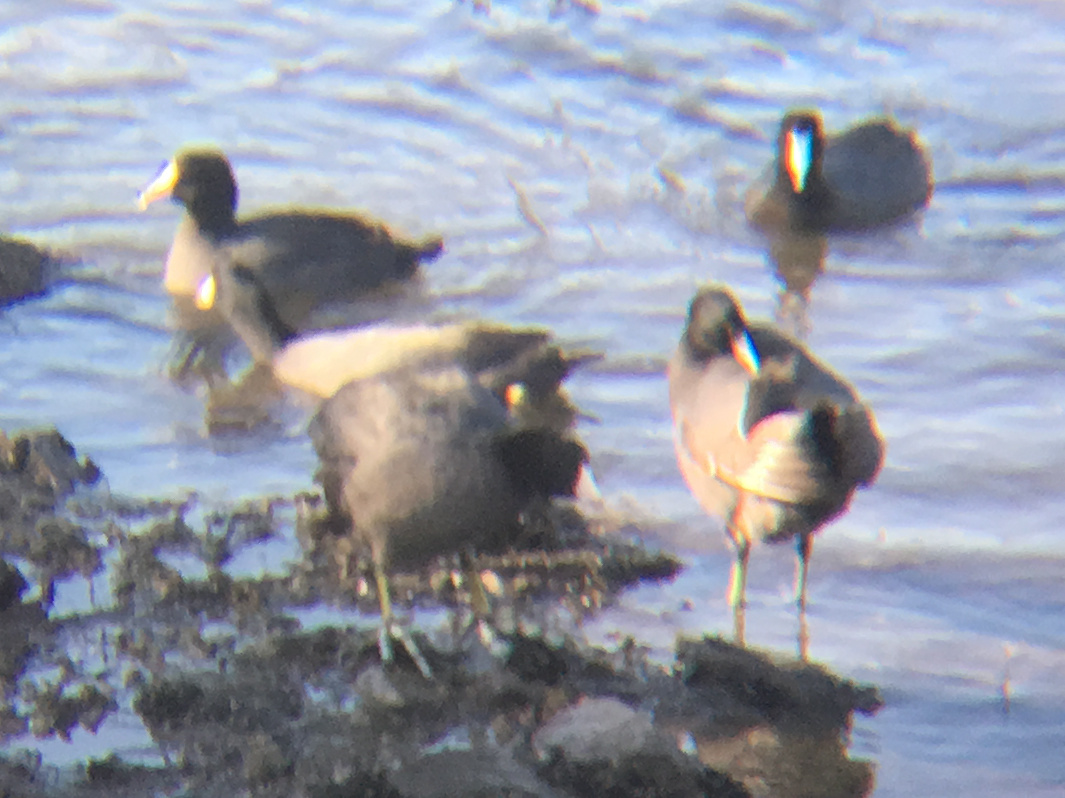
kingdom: Animalia
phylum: Chordata
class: Aves
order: Gruiformes
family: Rallidae
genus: Fulica
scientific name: Fulica americana
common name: American coot
